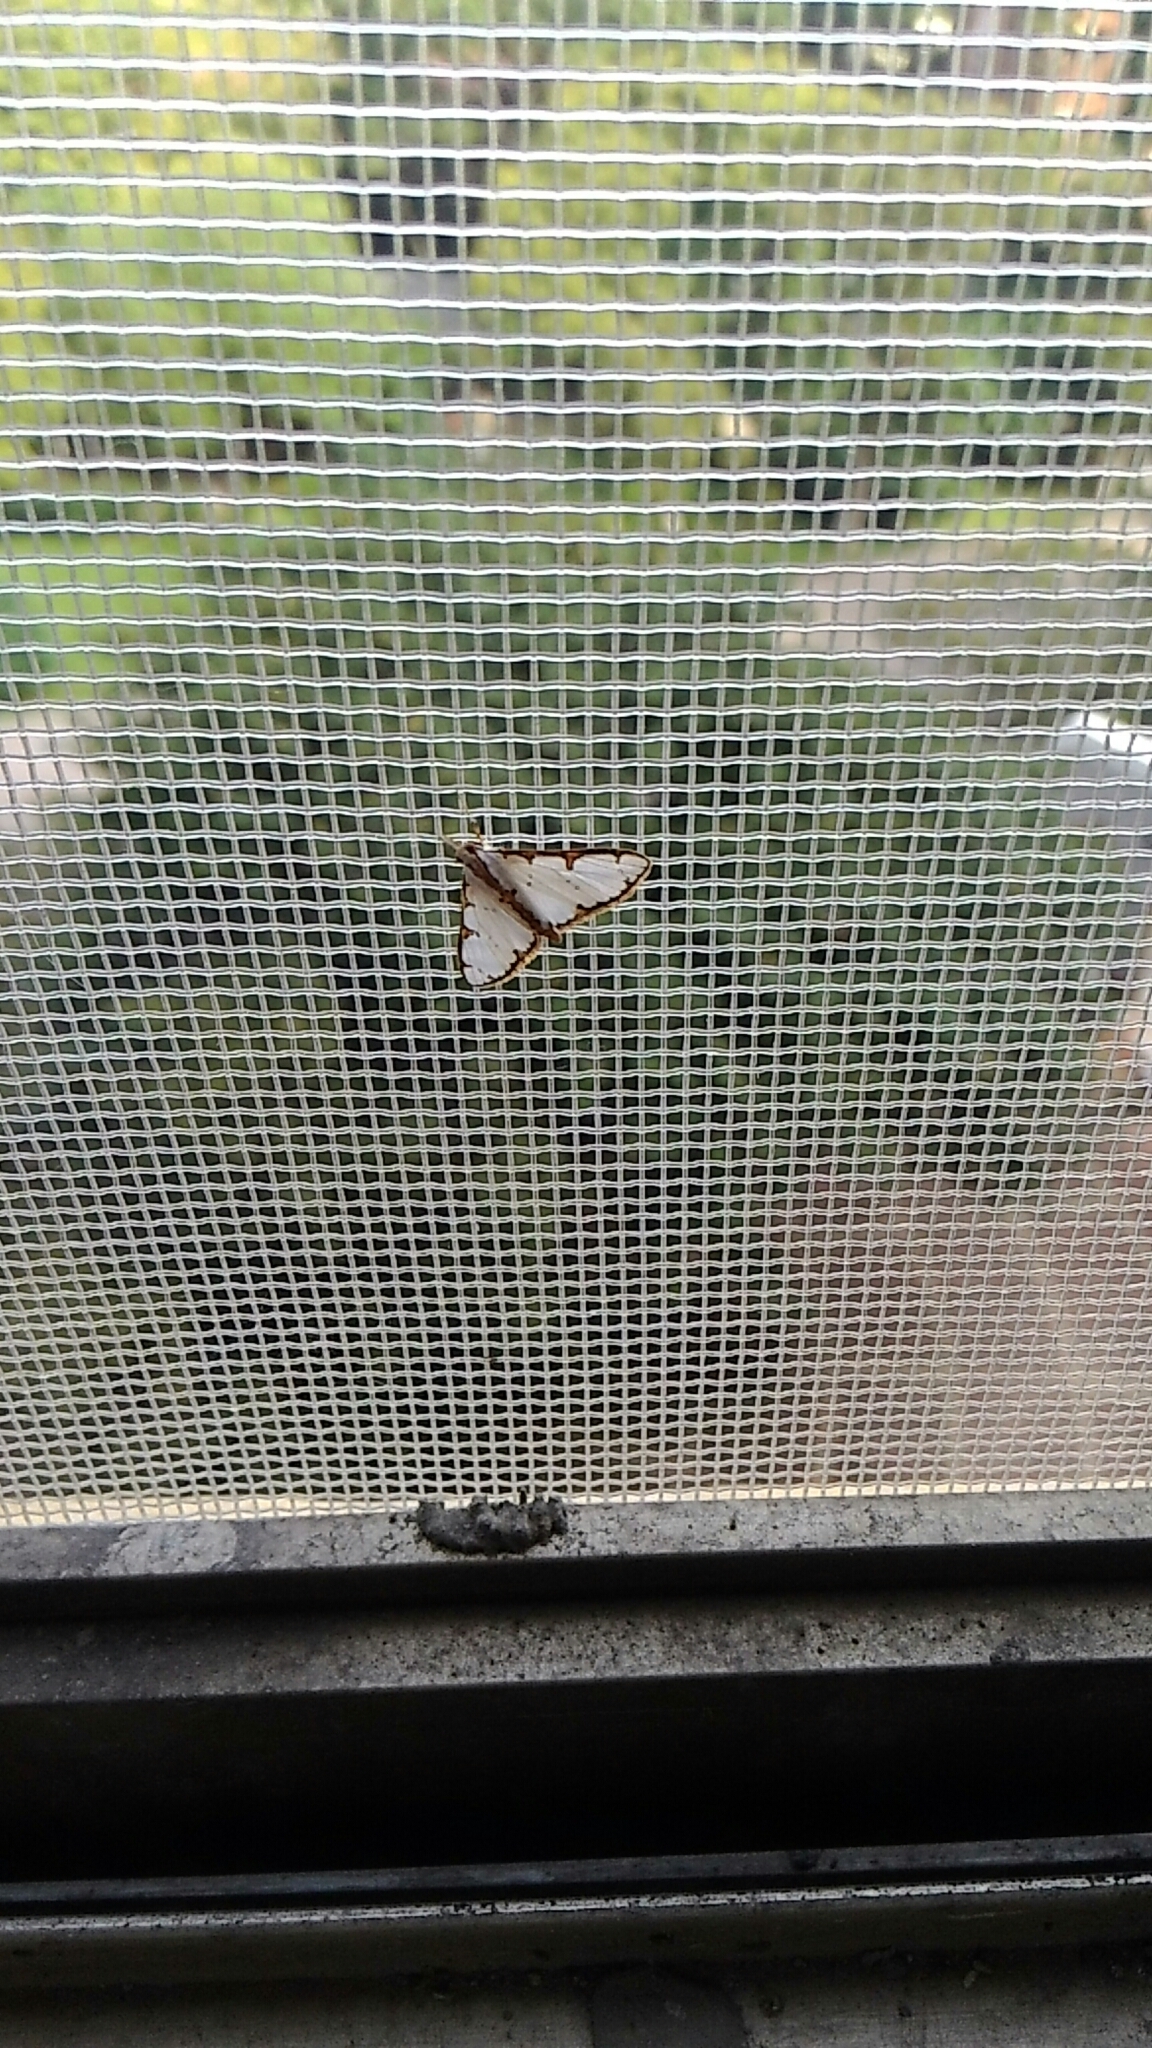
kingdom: Animalia
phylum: Arthropoda
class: Insecta
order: Lepidoptera
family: Crambidae
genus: Cirrhochrista
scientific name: Cirrhochrista brizoalis
